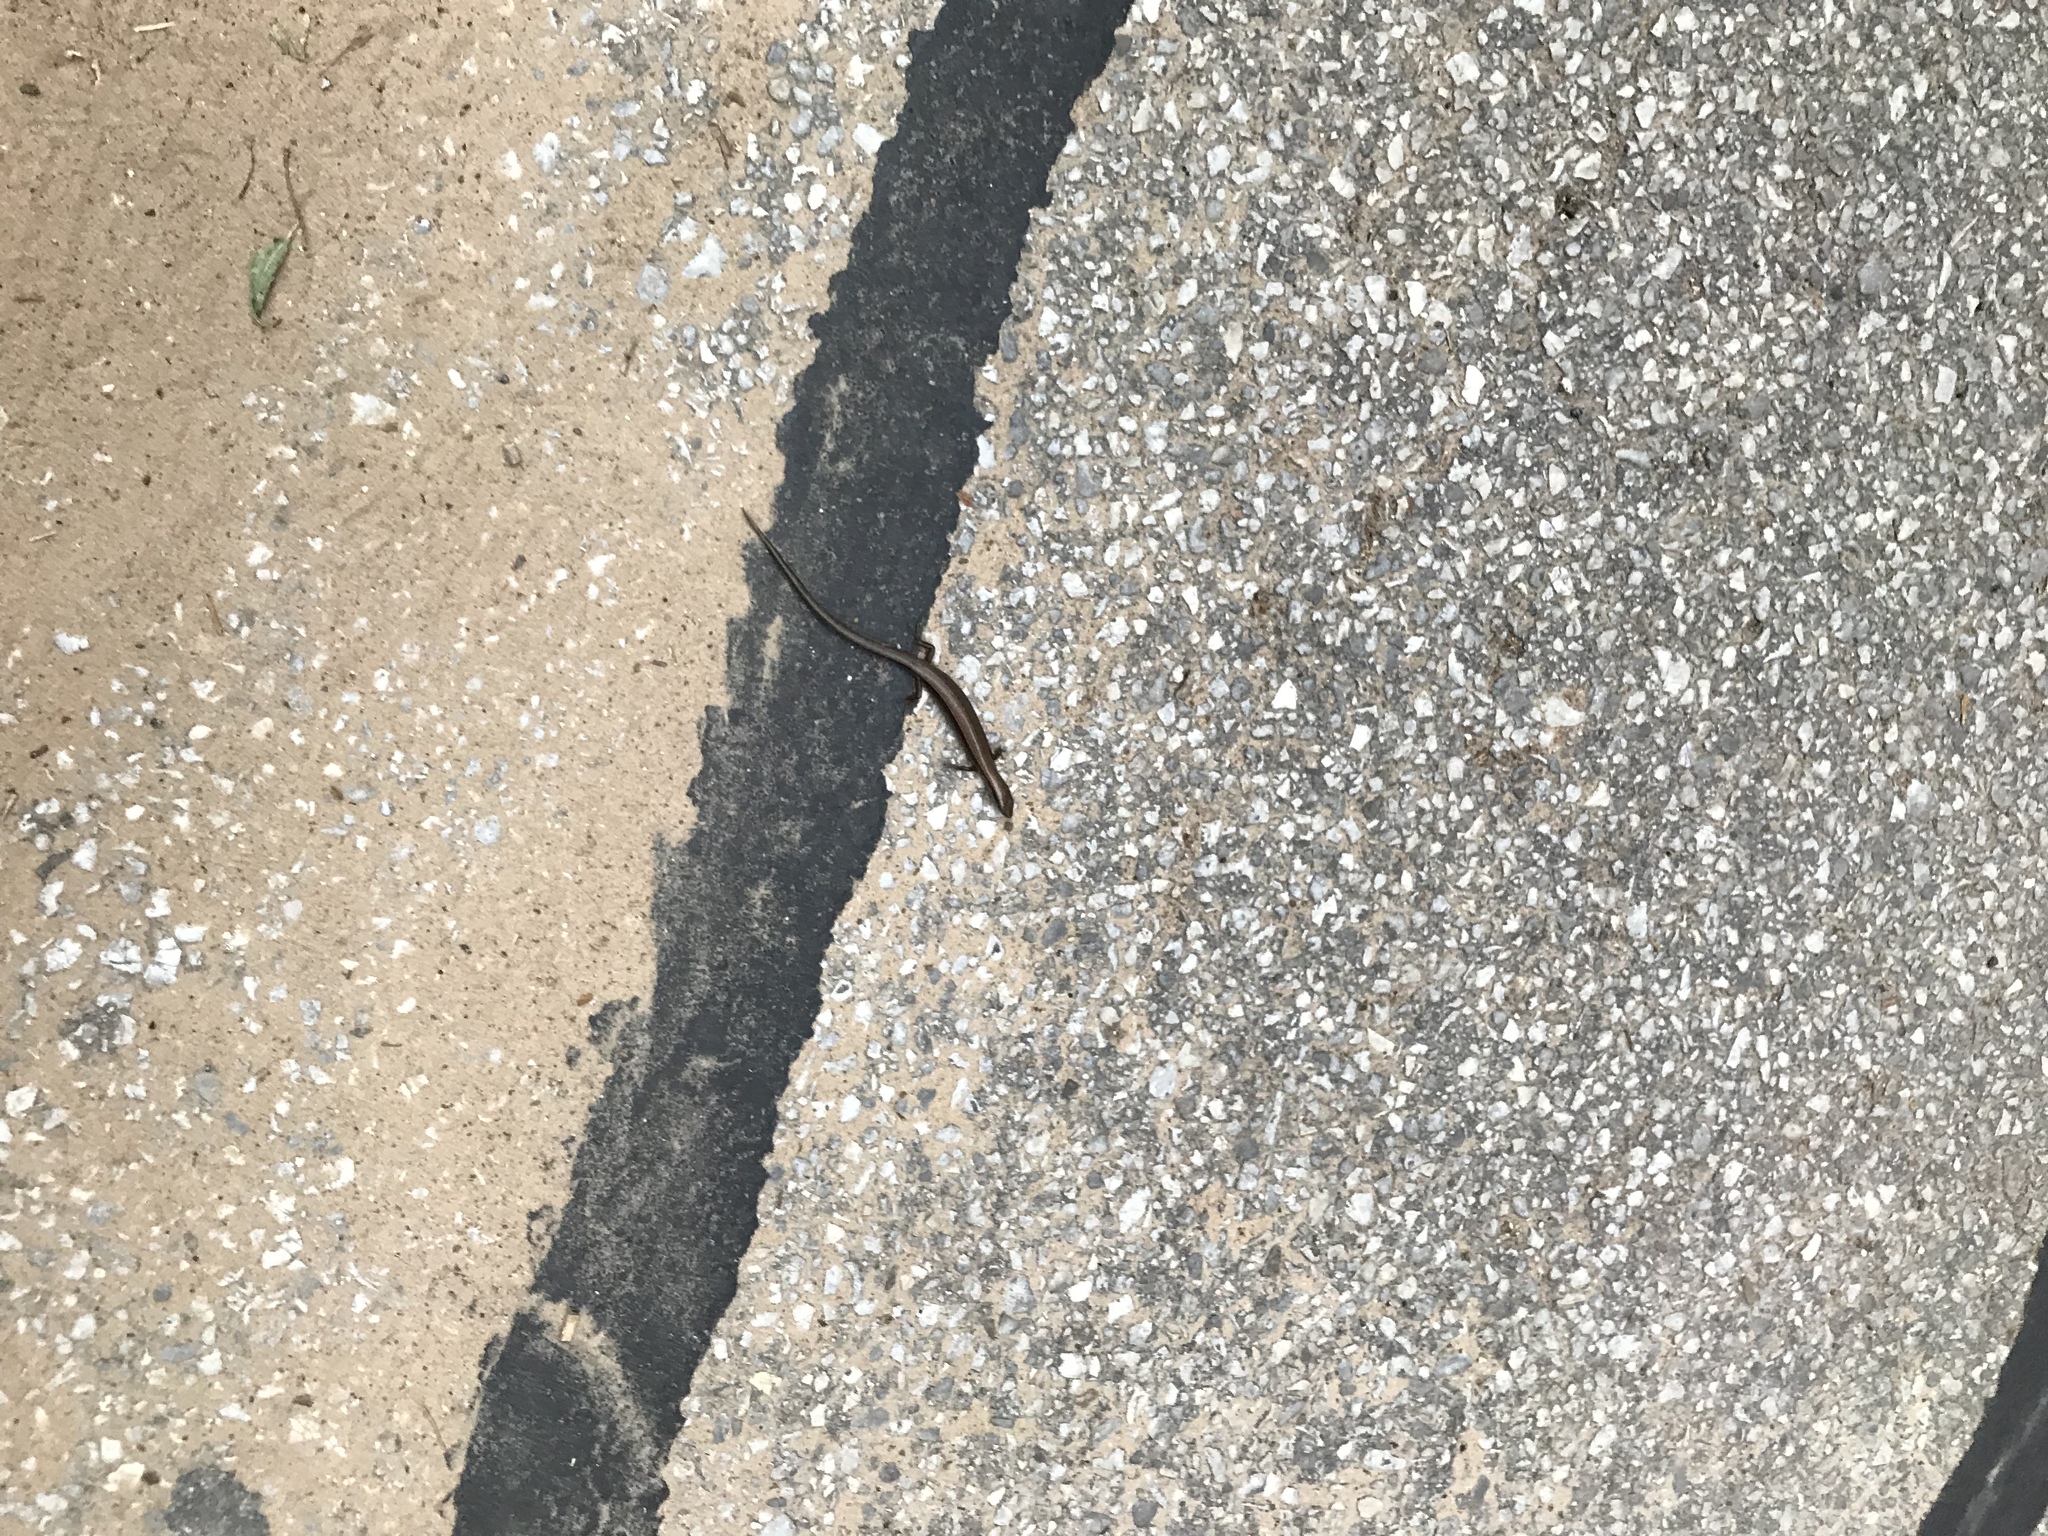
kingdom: Animalia
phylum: Chordata
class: Squamata
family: Scincidae
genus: Scincella
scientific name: Scincella lateralis
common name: Ground skink
